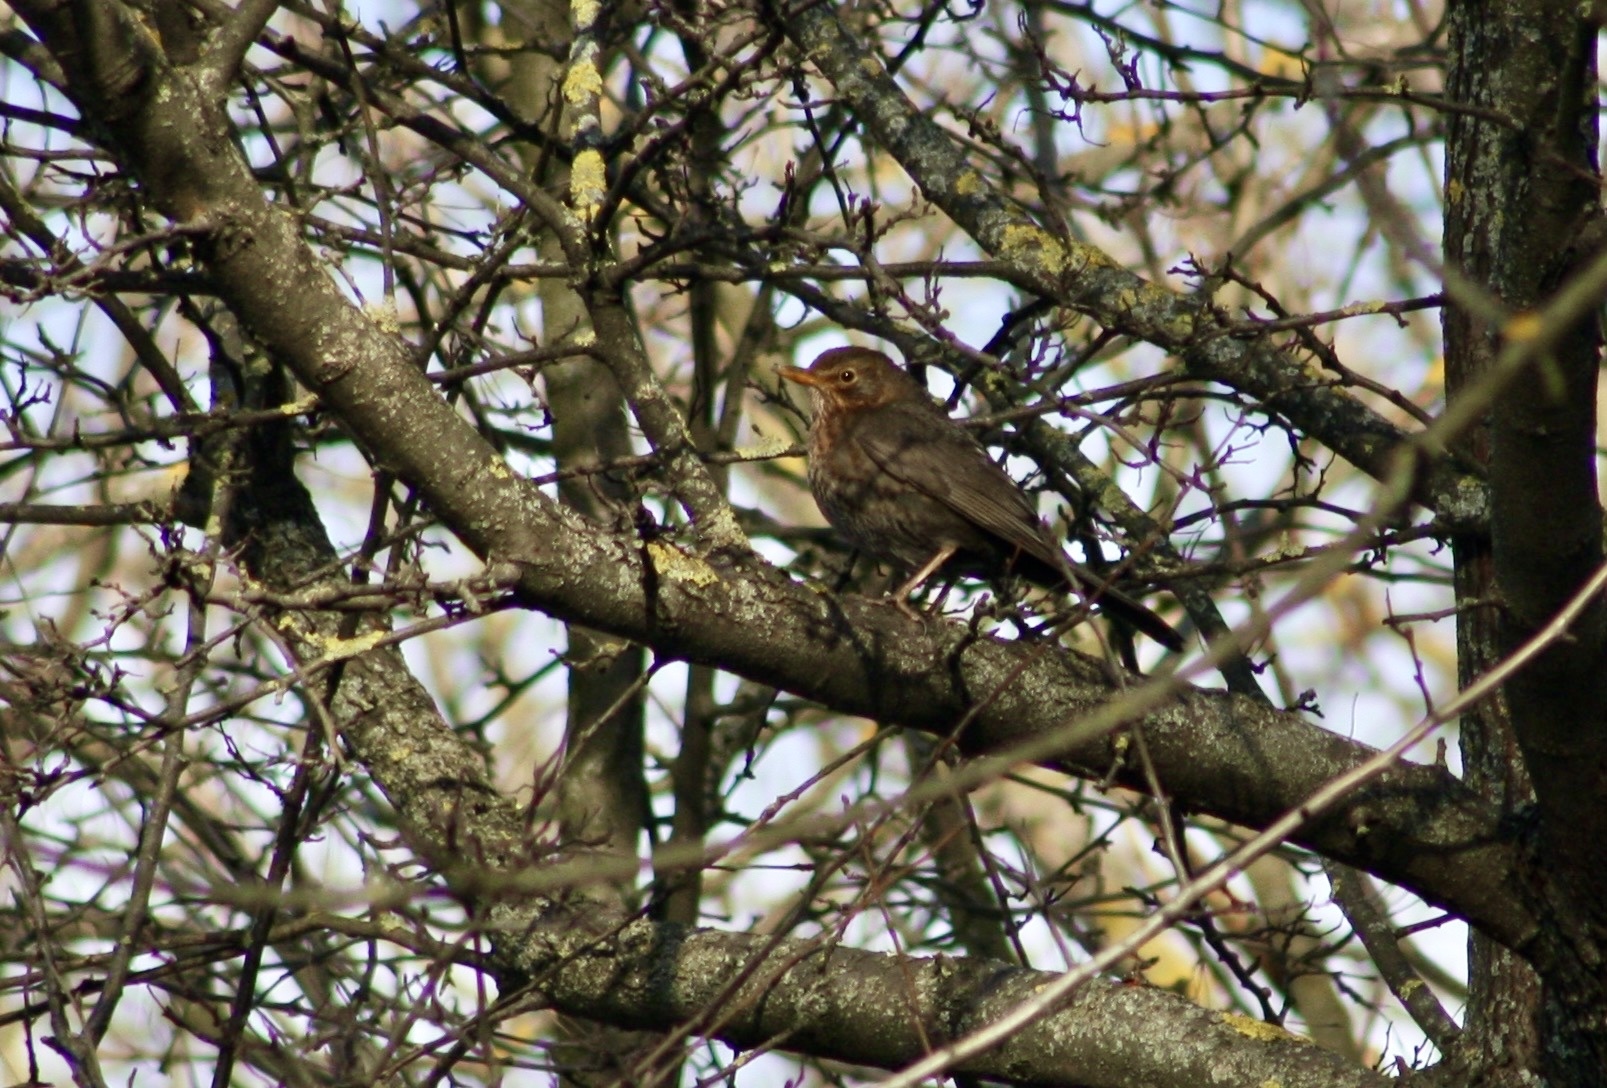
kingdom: Animalia
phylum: Chordata
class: Aves
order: Passeriformes
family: Turdidae
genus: Turdus
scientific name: Turdus merula
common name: Common blackbird
